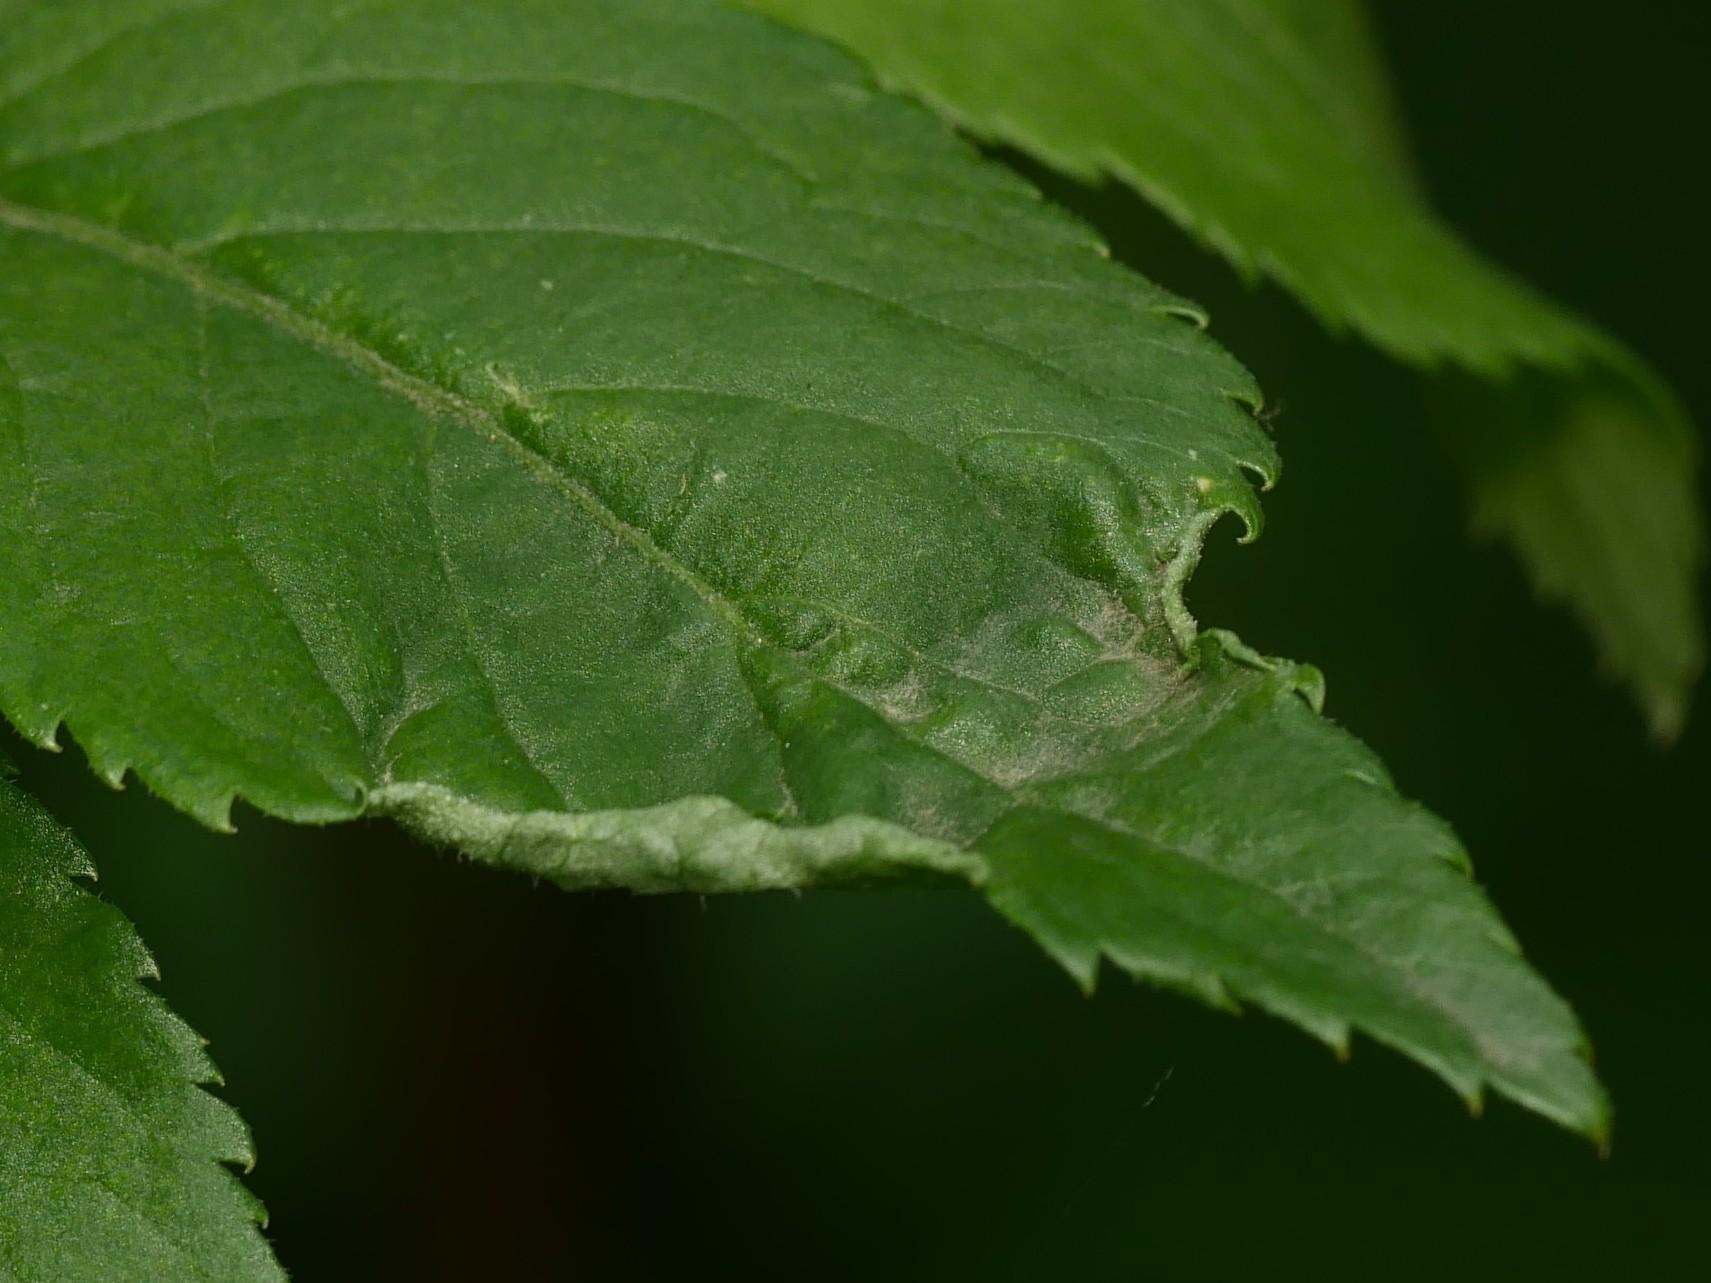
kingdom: Animalia
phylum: Arthropoda
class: Arachnida
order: Trombidiformes
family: Eriophyidae
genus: Epitrimerus
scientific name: Epitrimerus trilobus
